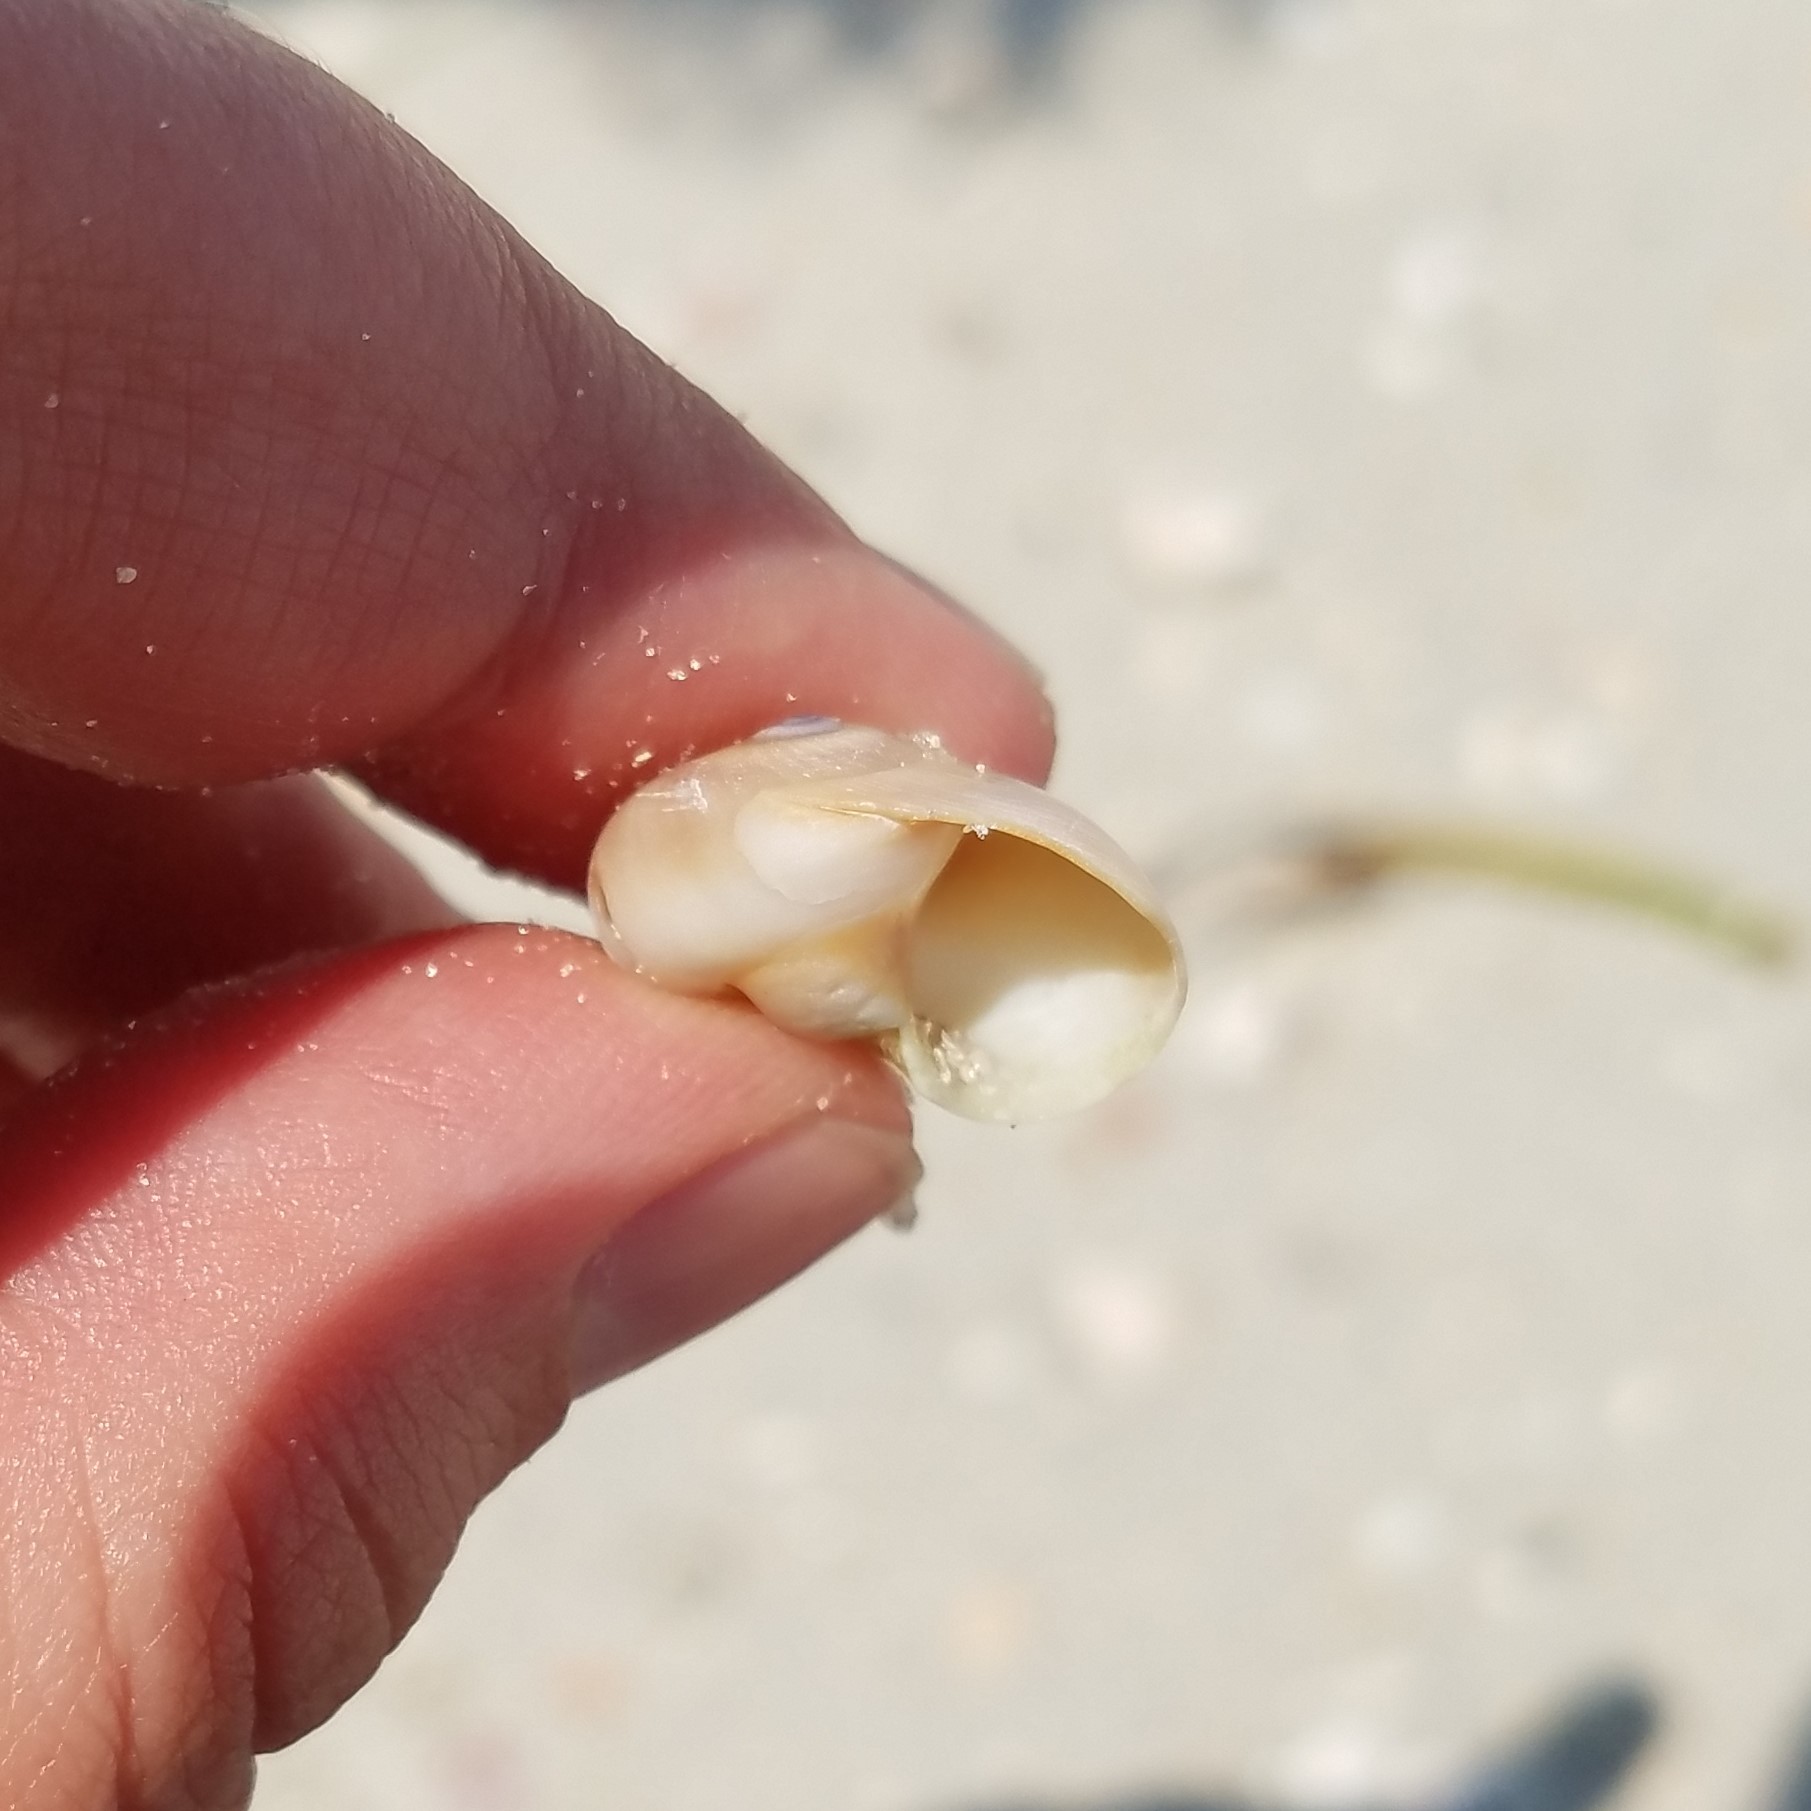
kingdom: Animalia
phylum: Mollusca
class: Gastropoda
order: Littorinimorpha
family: Naticidae
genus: Neverita
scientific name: Neverita duplicata
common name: Lobed moonsnail
